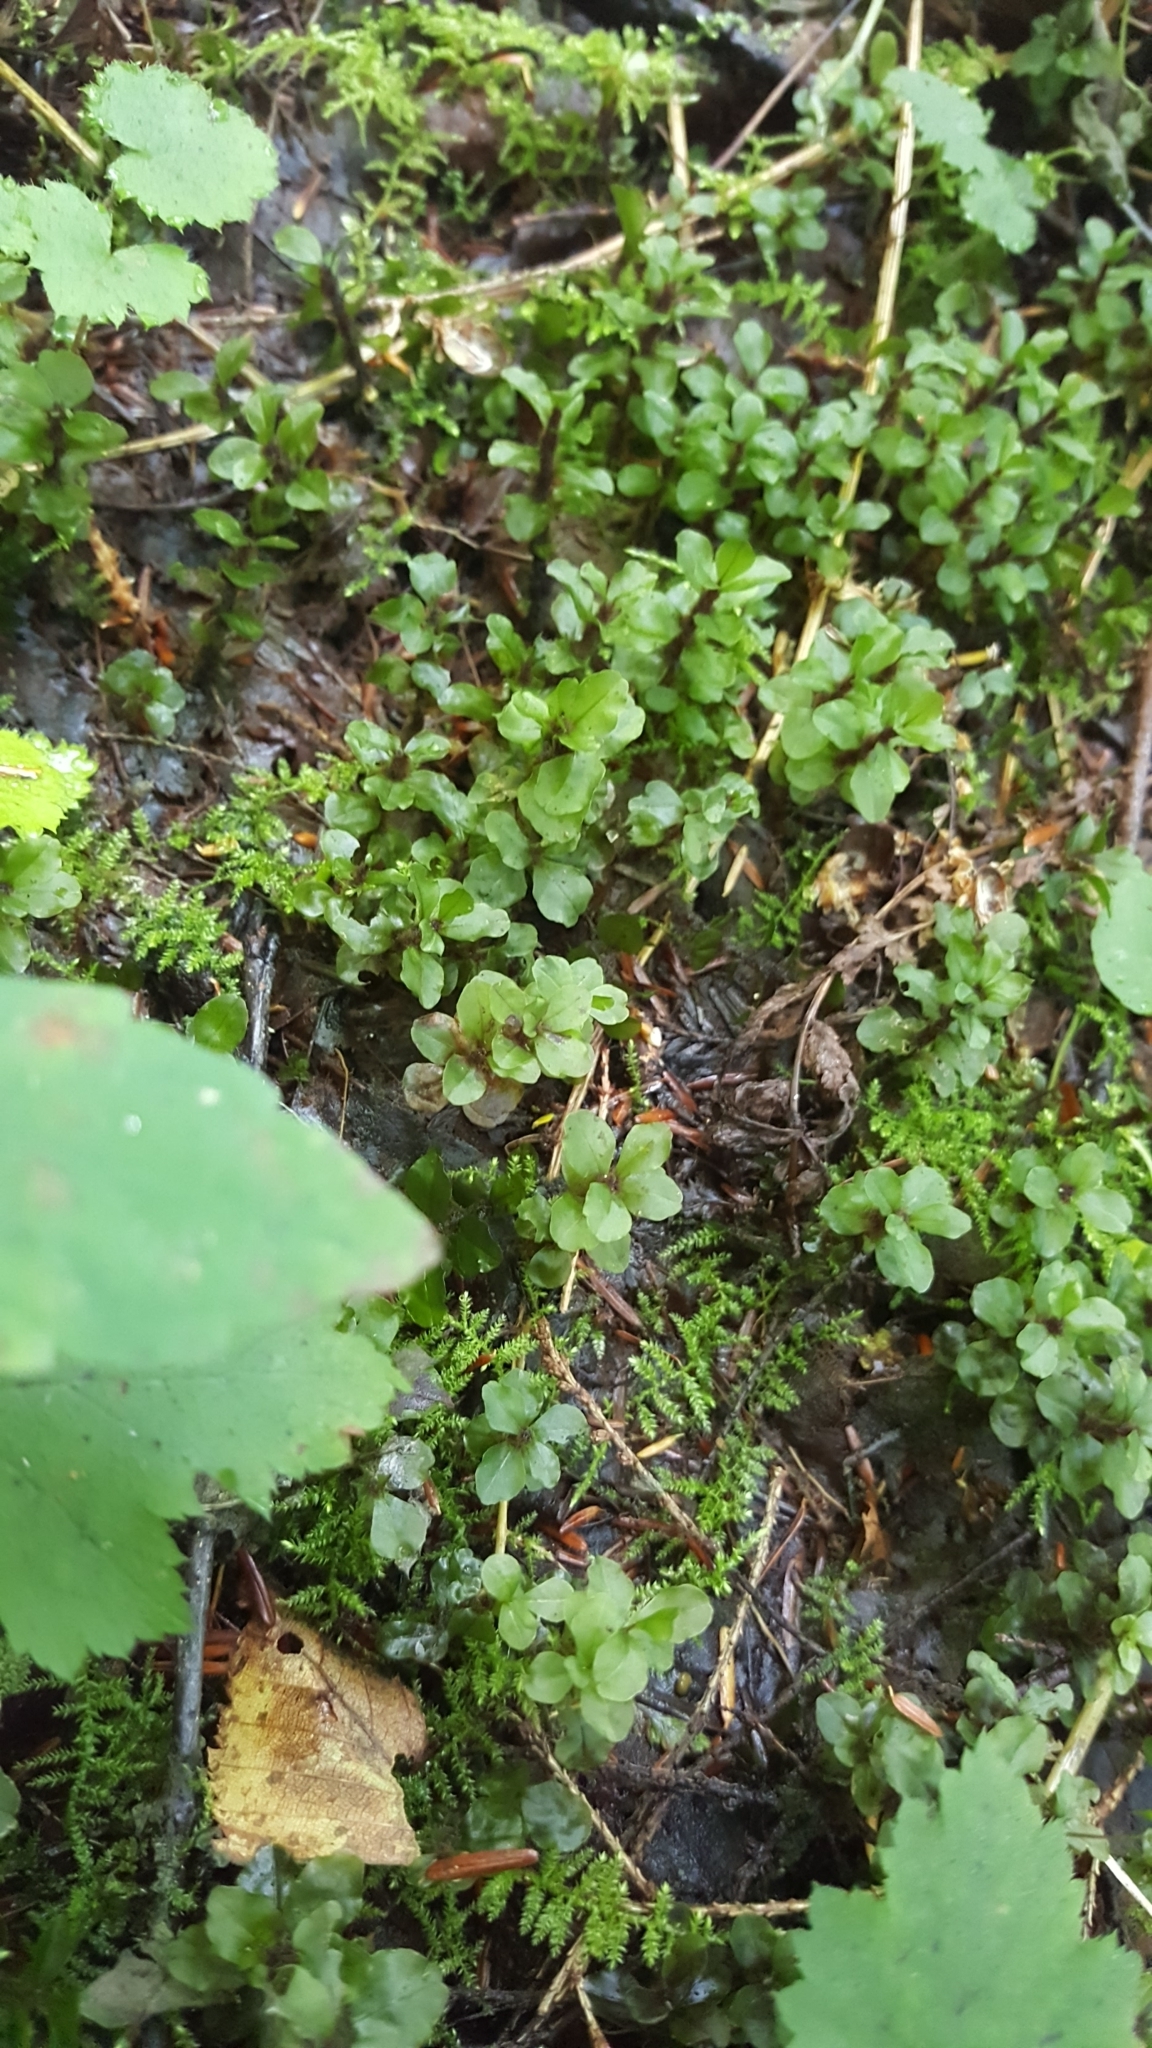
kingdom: Plantae
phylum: Bryophyta
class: Bryopsida
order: Bryales
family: Mniaceae
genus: Rhizomnium
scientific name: Rhizomnium
